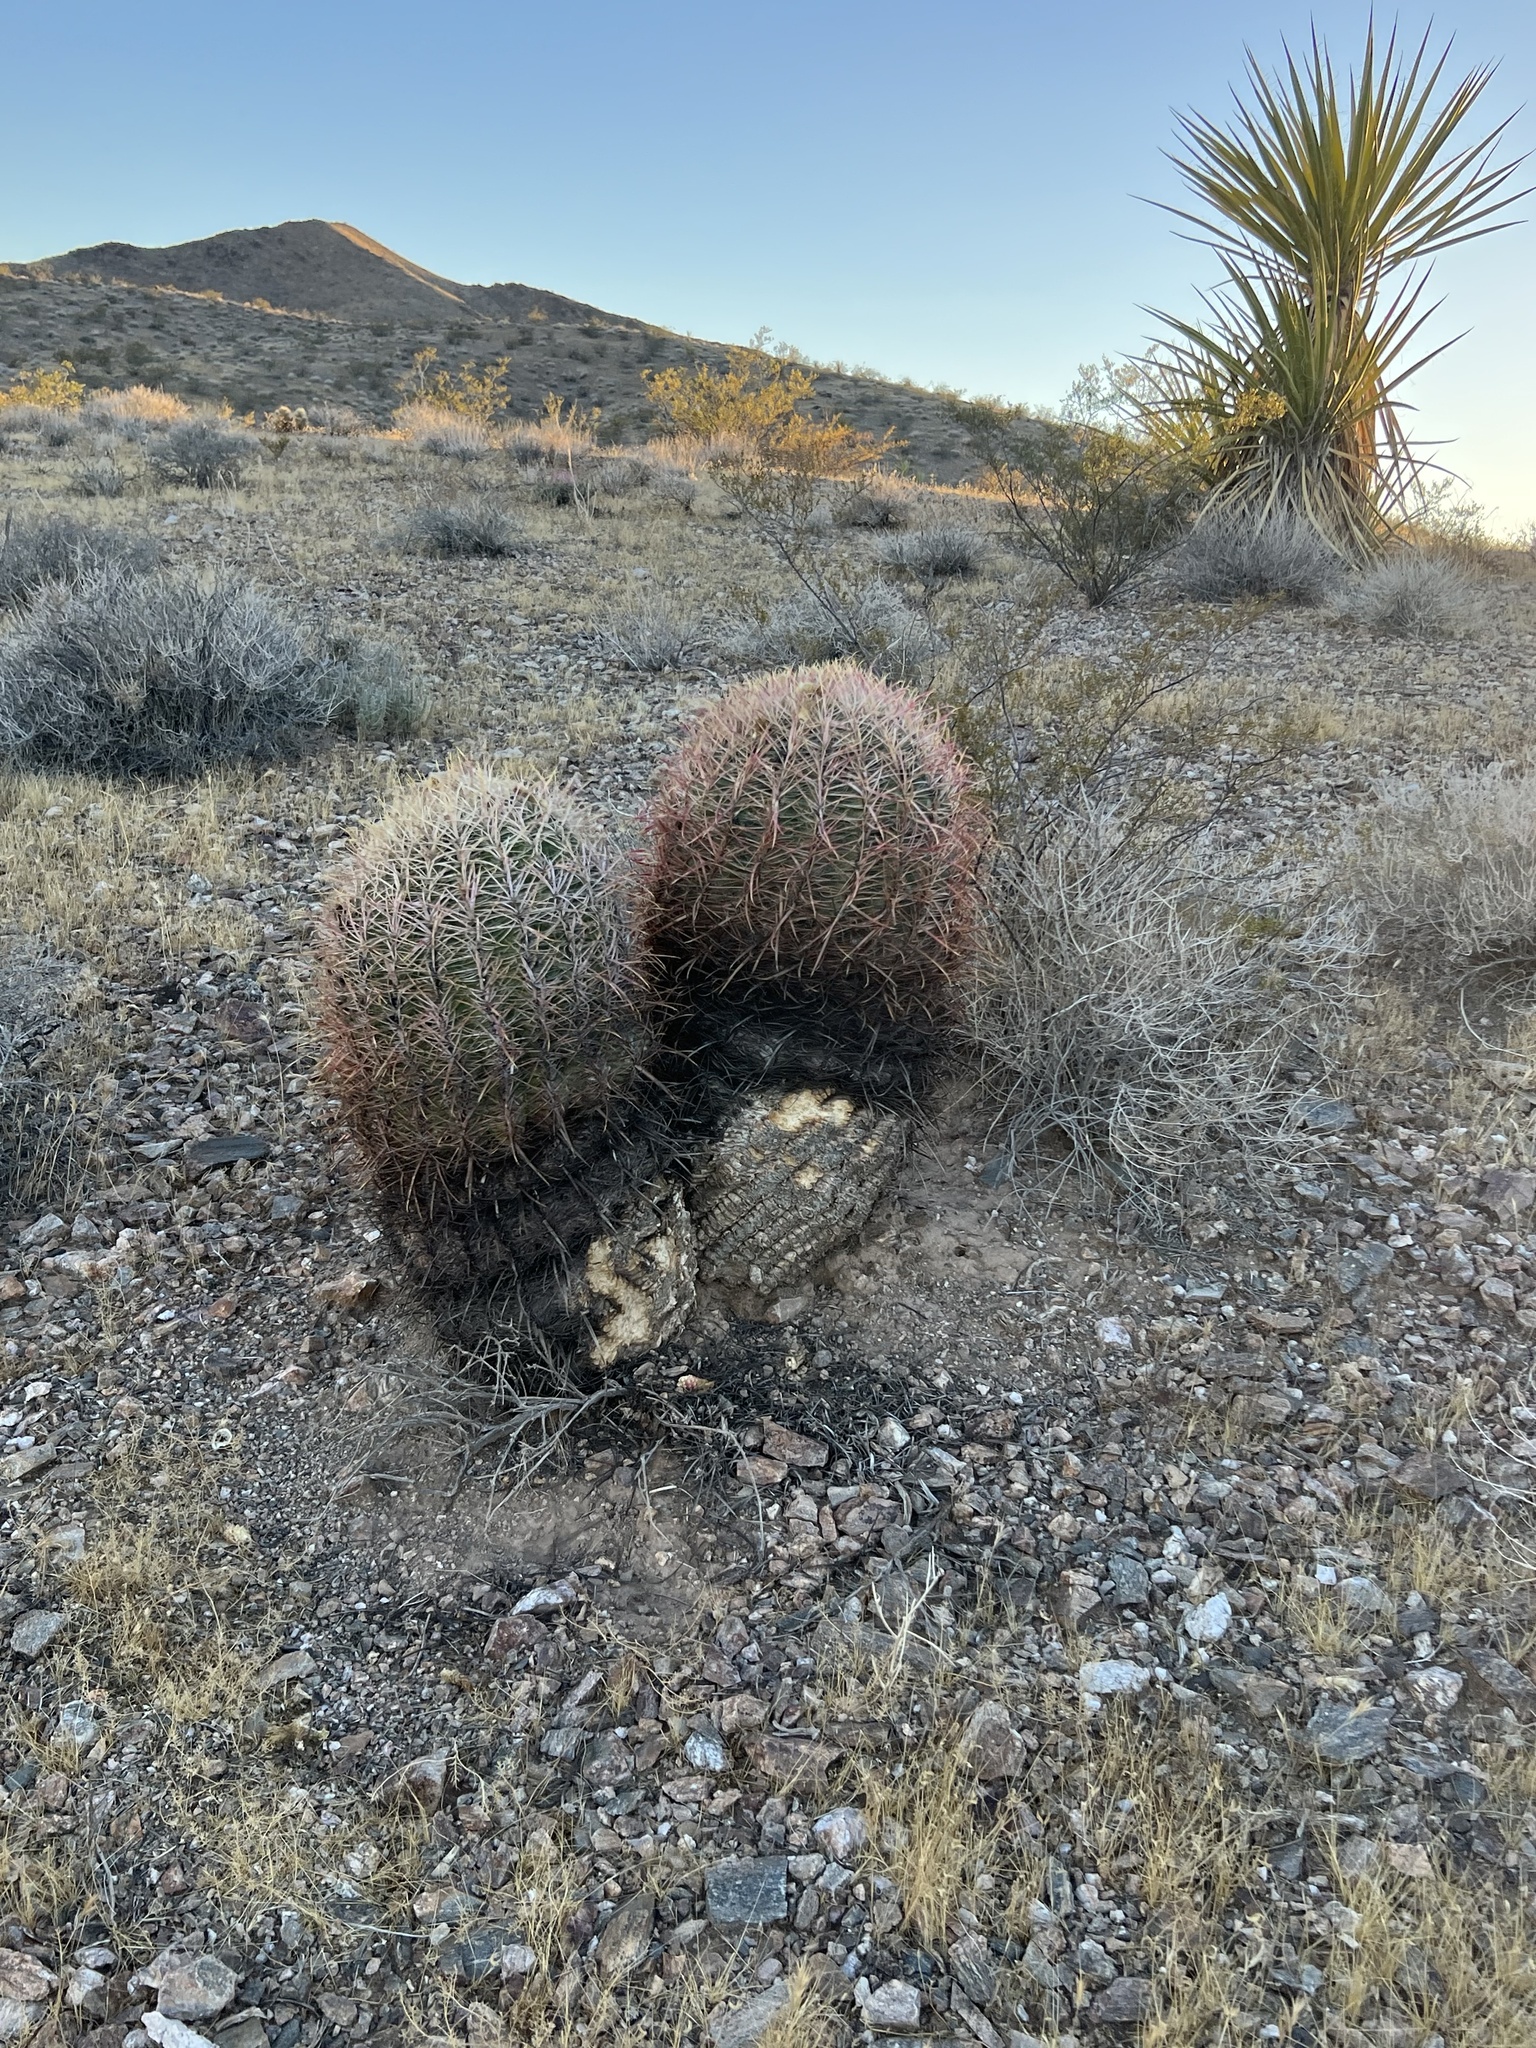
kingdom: Plantae
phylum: Tracheophyta
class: Magnoliopsida
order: Caryophyllales
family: Cactaceae
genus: Ferocactus
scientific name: Ferocactus cylindraceus
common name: California barrel cactus
